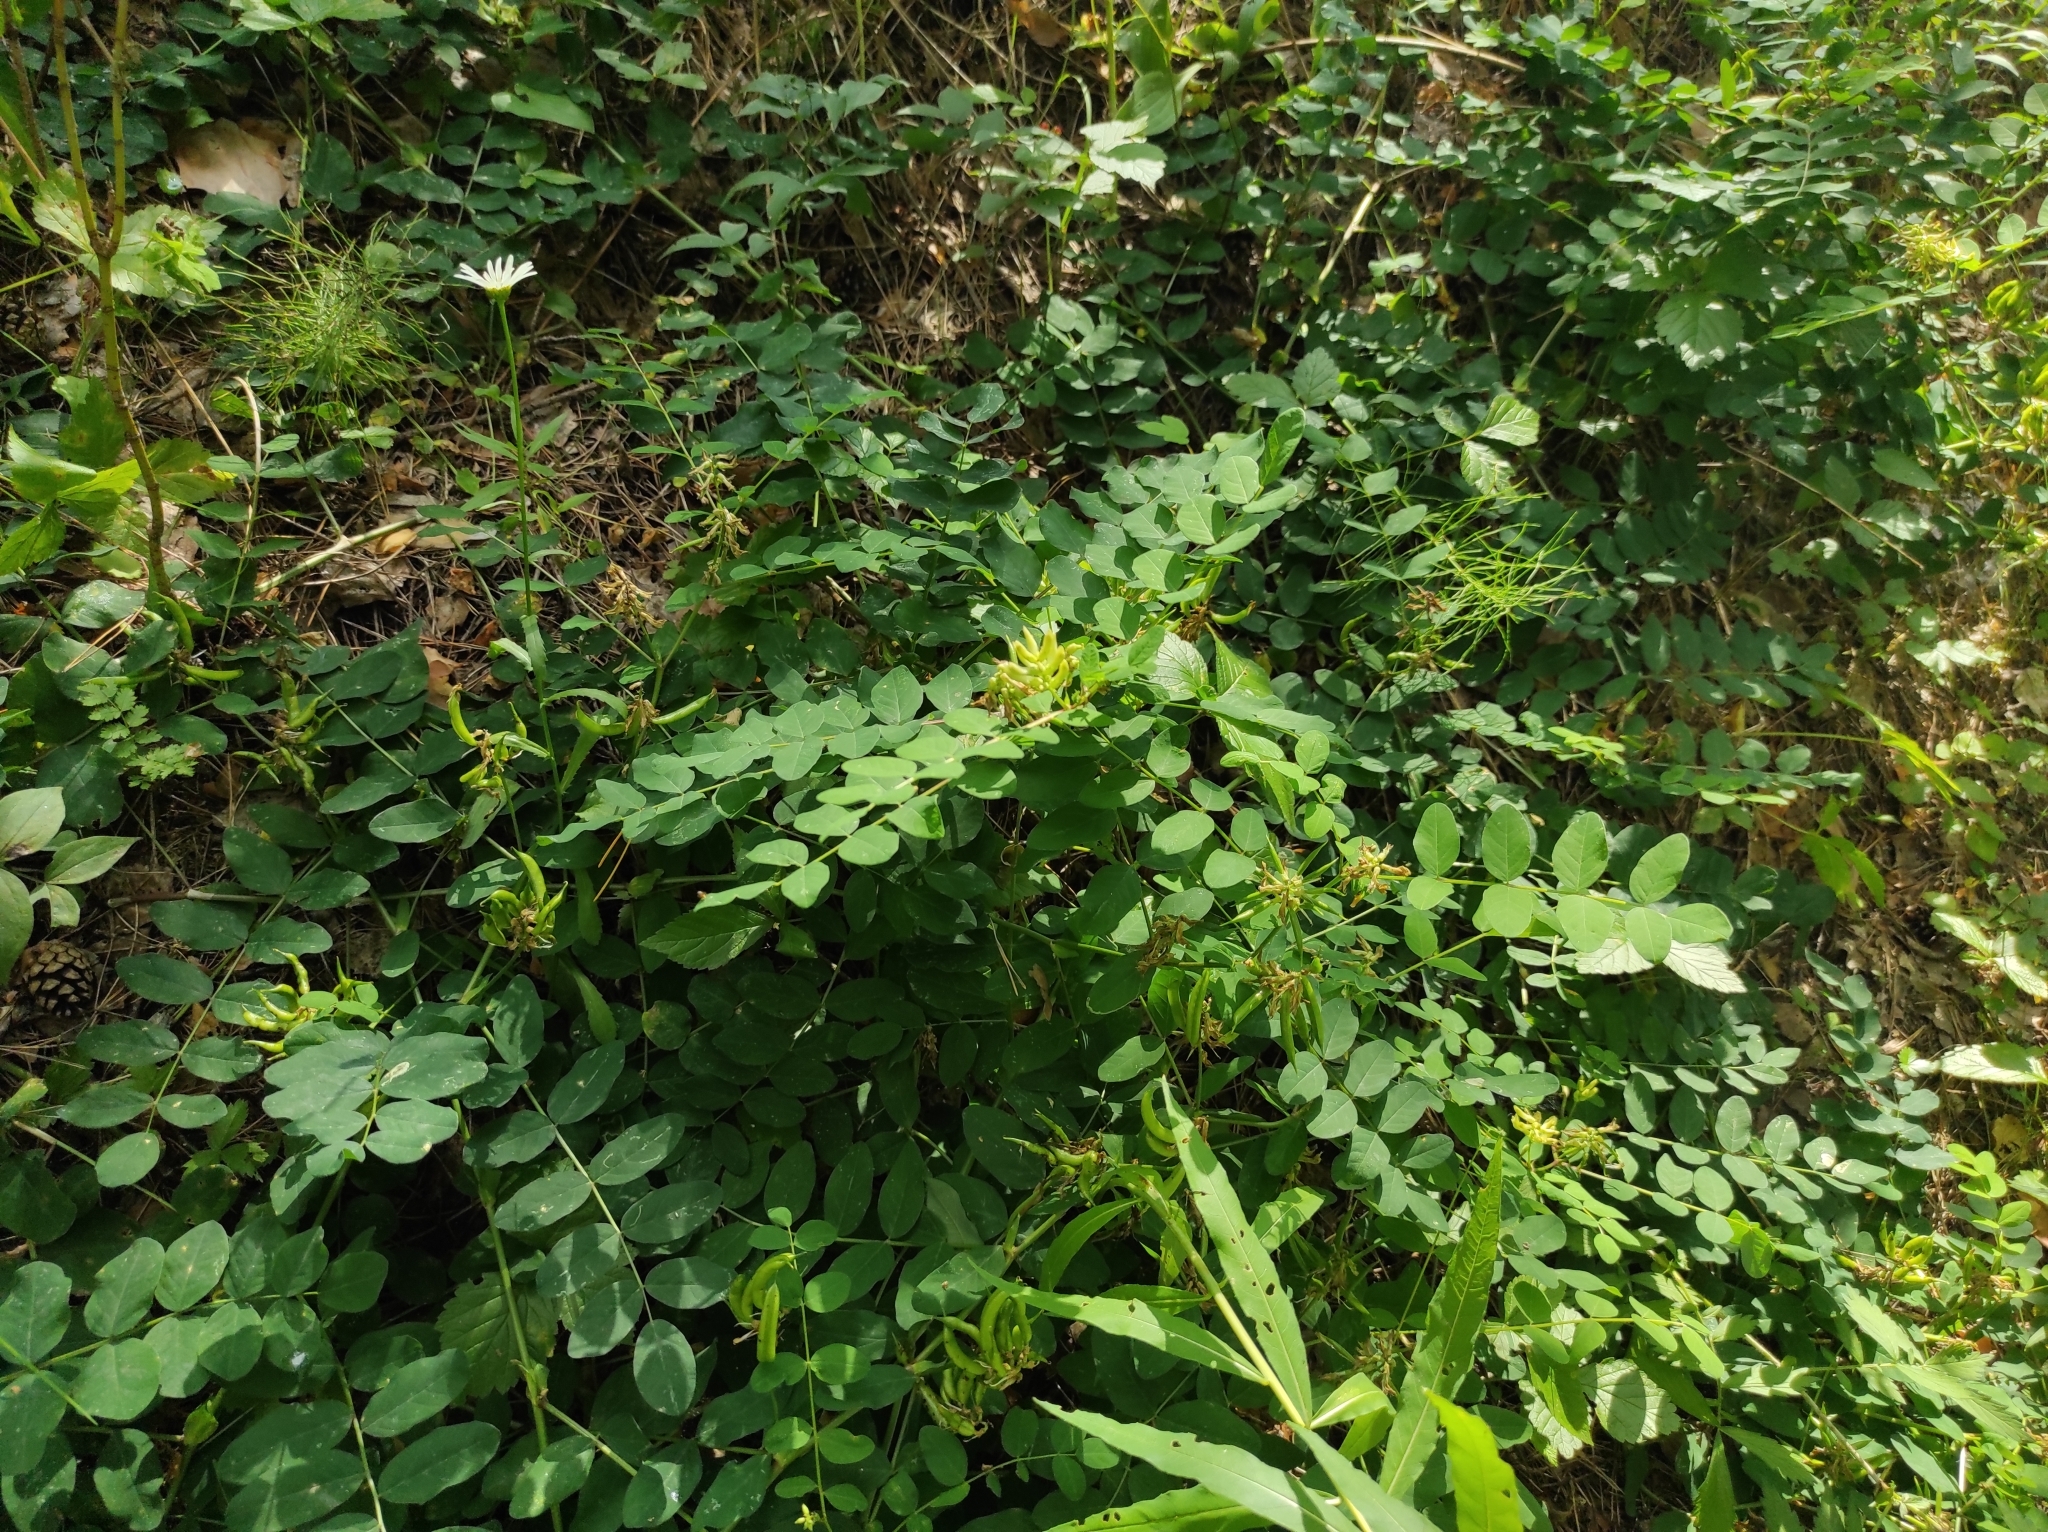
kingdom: Plantae
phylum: Tracheophyta
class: Magnoliopsida
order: Fabales
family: Fabaceae
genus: Astragalus
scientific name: Astragalus glycyphyllos
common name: Wild liquorice
